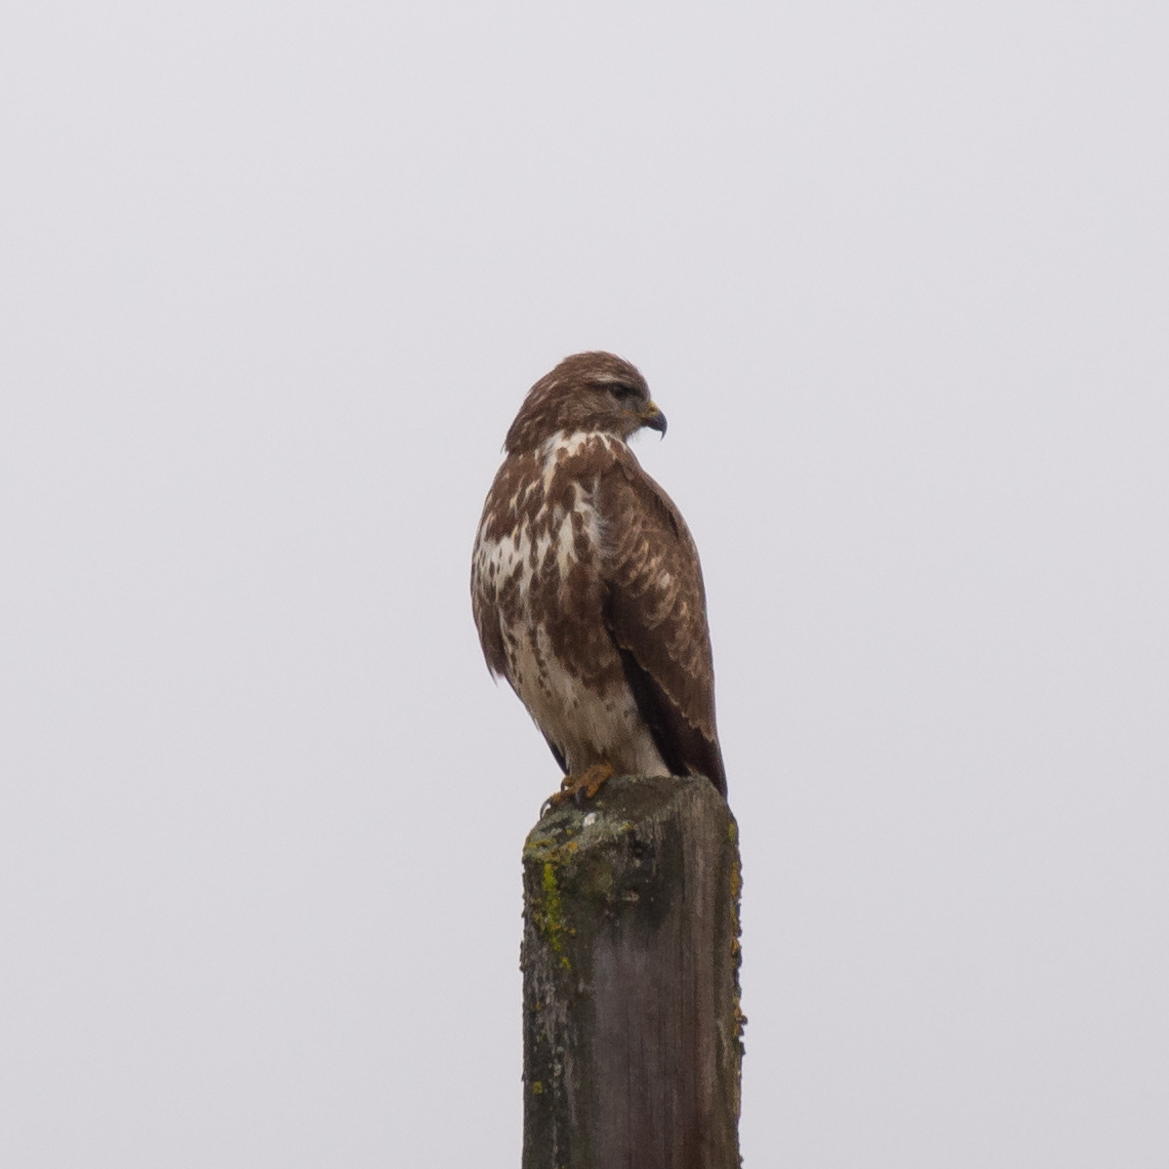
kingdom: Animalia
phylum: Chordata
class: Aves
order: Accipitriformes
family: Accipitridae
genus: Buteo
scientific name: Buteo buteo
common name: Common buzzard
